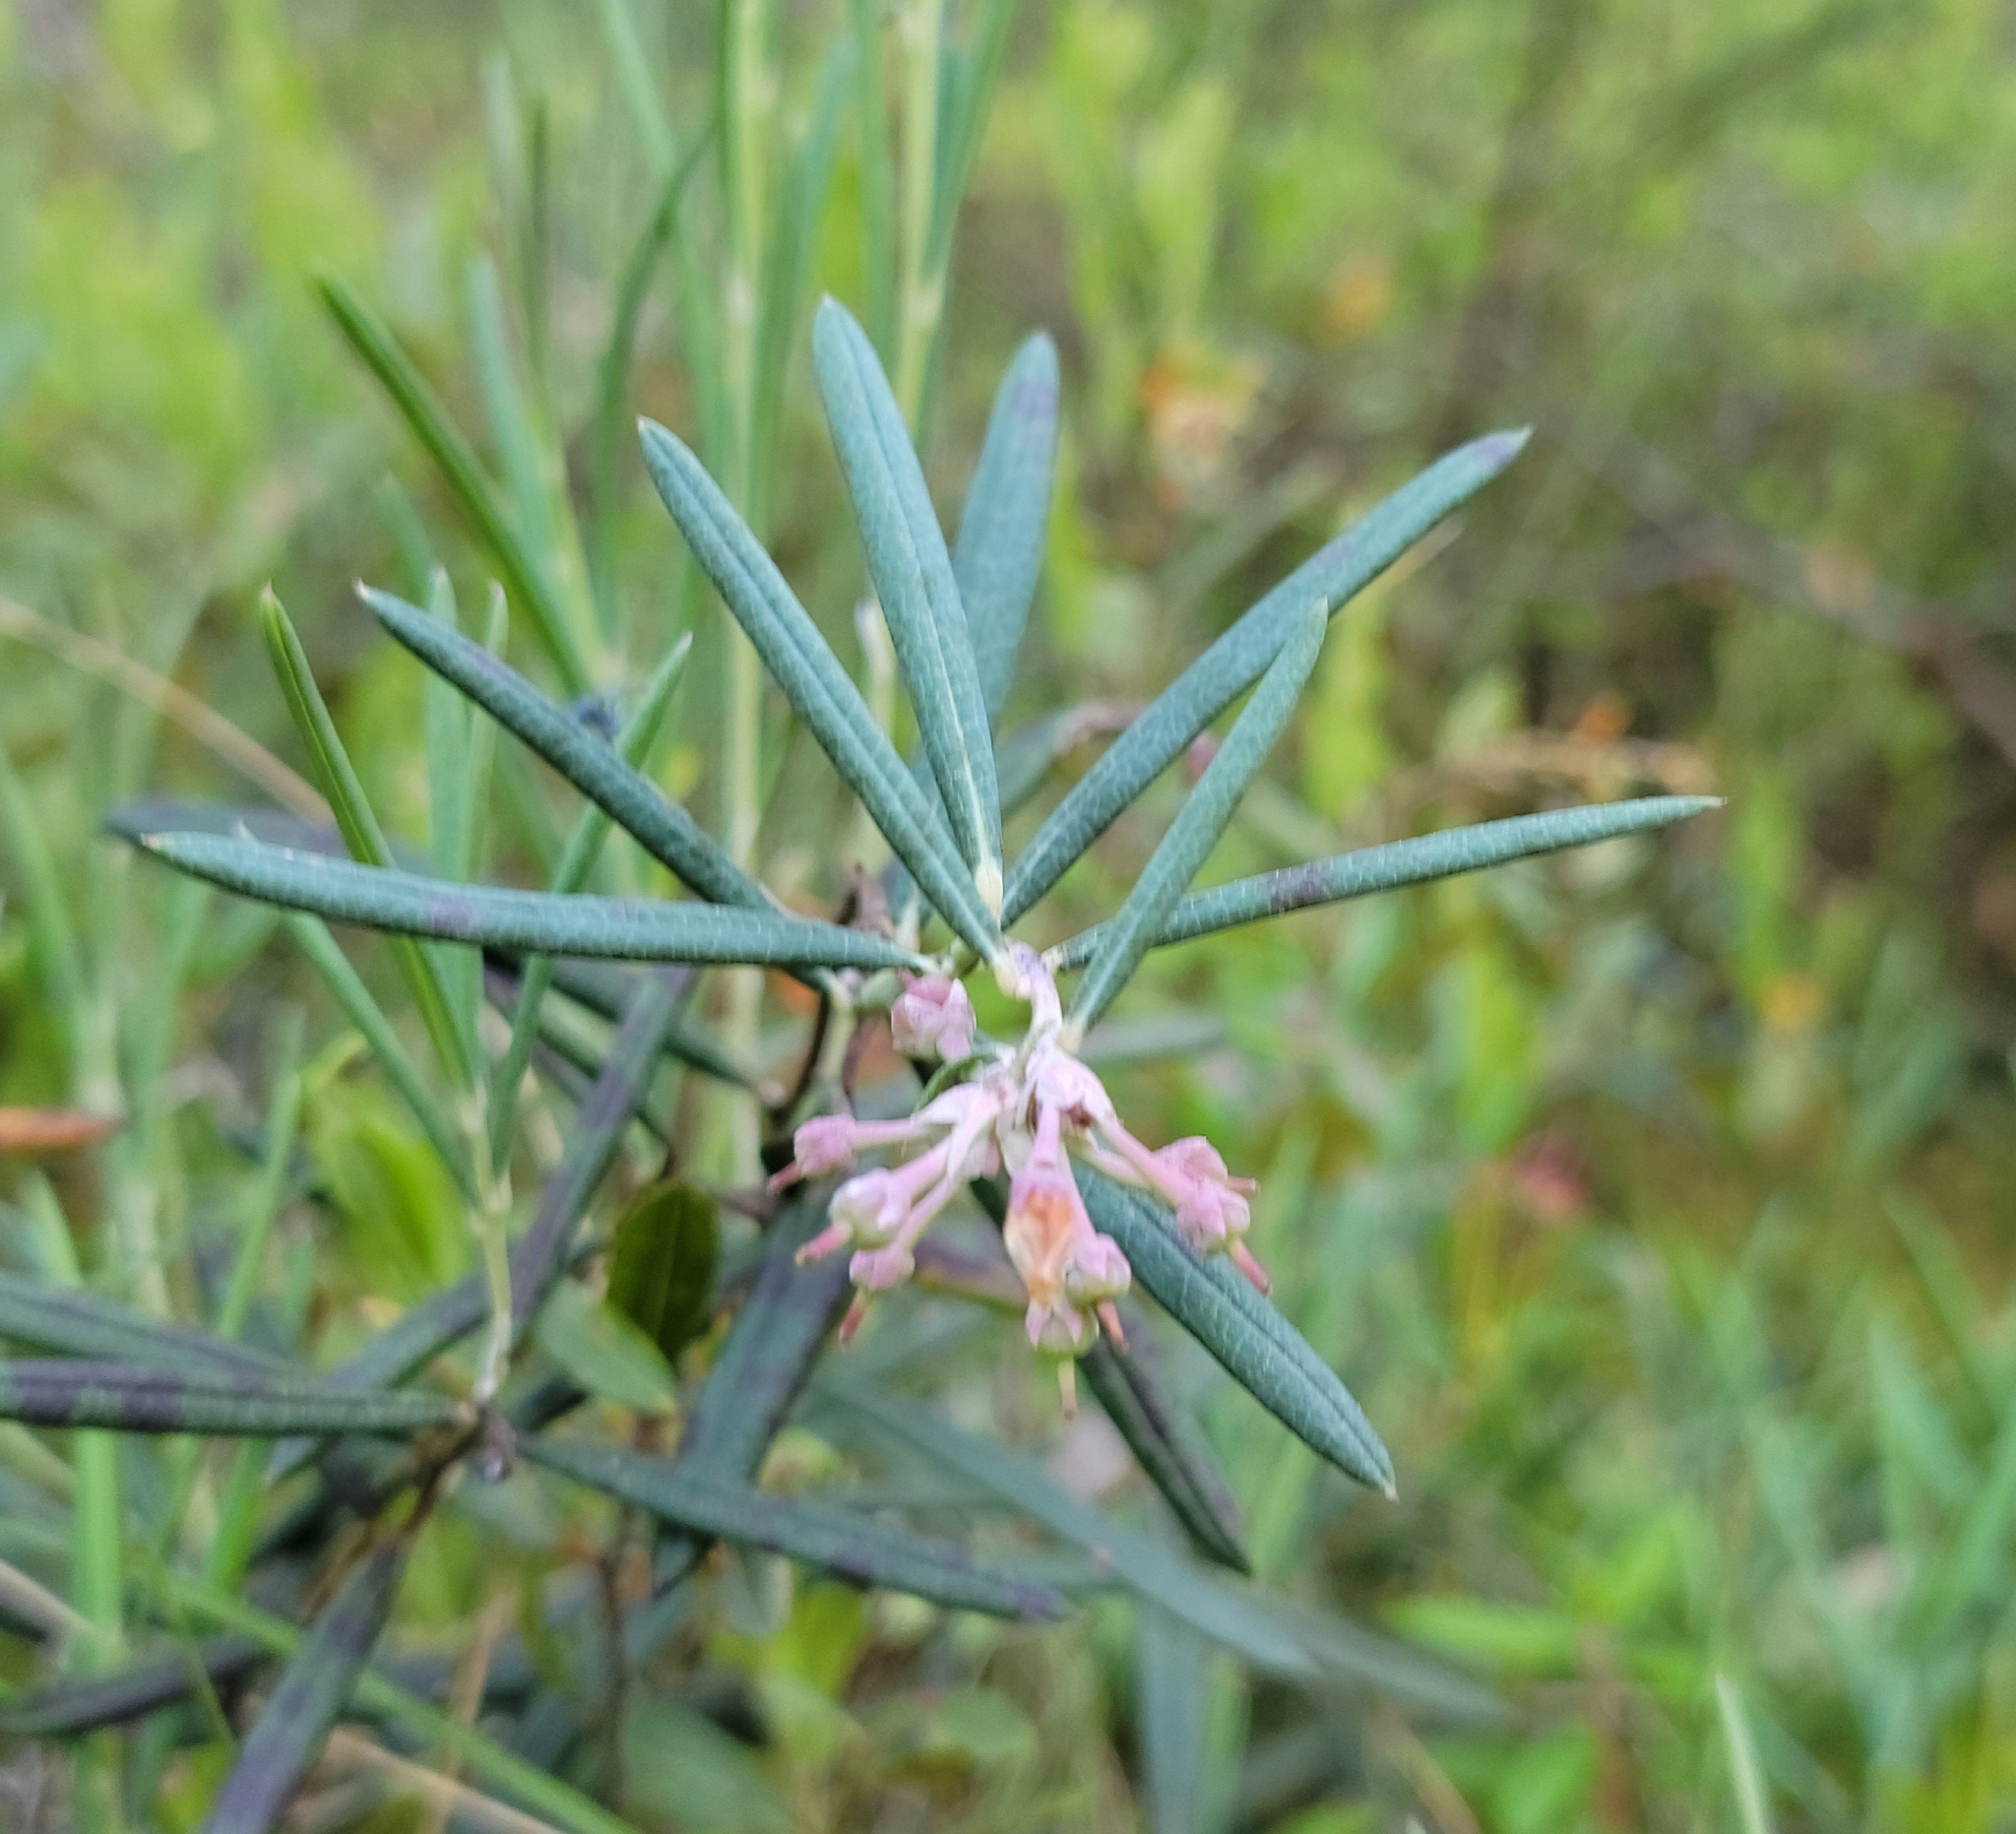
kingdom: Plantae
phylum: Tracheophyta
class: Magnoliopsida
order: Ericales
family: Ericaceae
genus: Andromeda
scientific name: Andromeda polifolia
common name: Bog-rosemary
